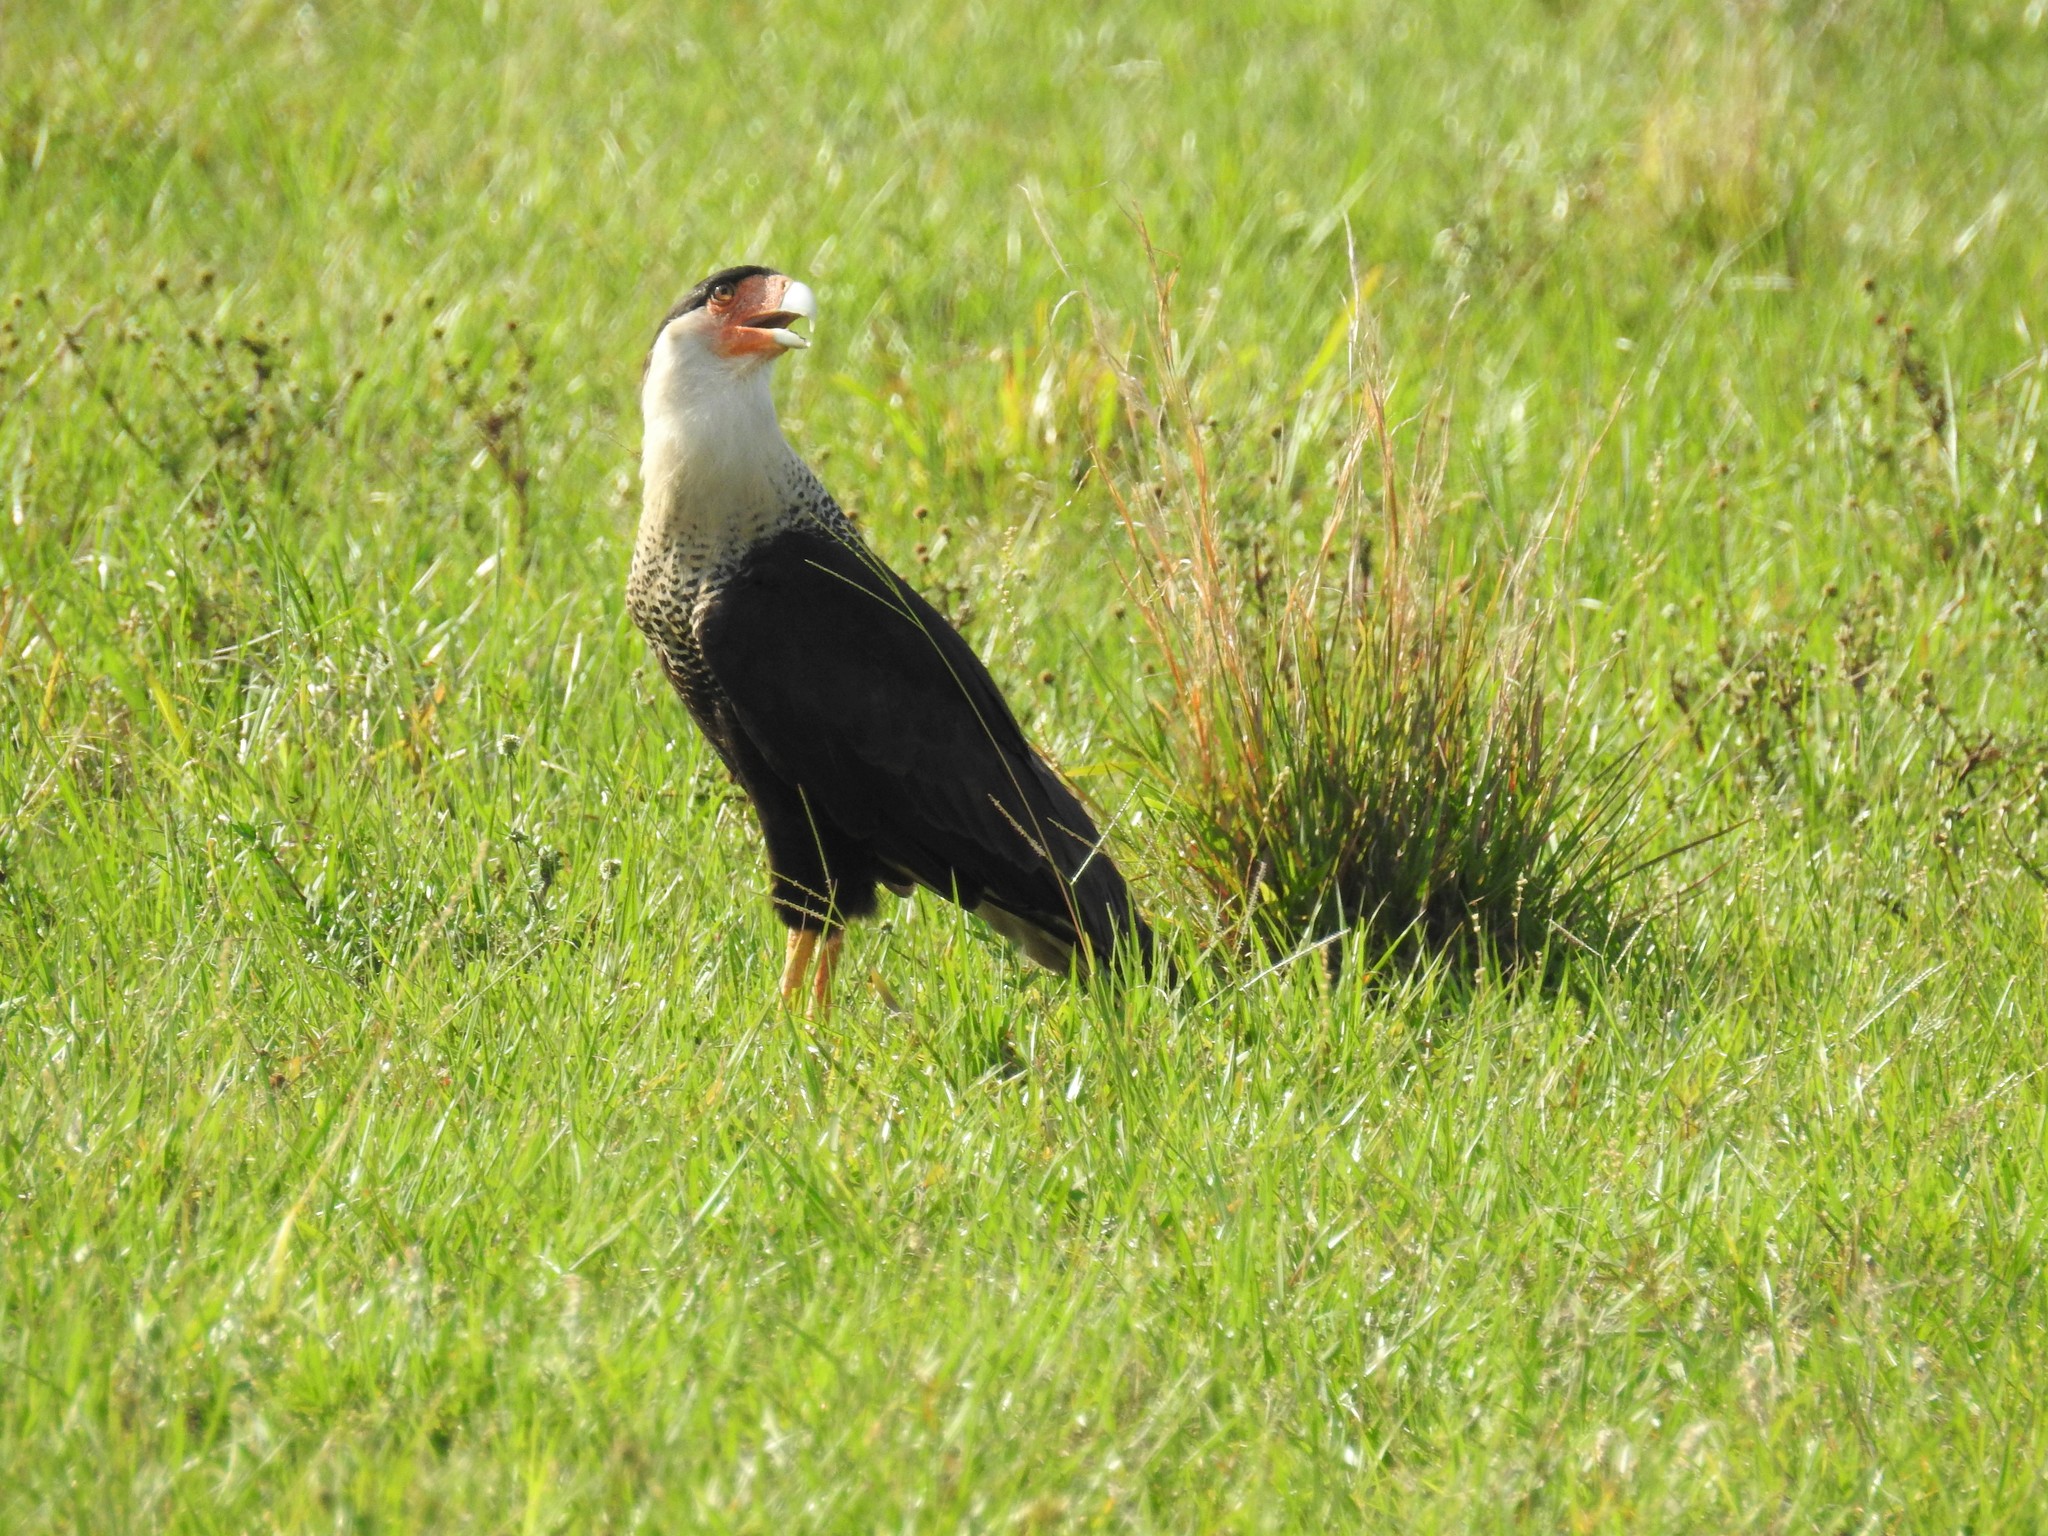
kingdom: Animalia
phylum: Chordata
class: Aves
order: Falconiformes
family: Falconidae
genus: Caracara
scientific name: Caracara plancus
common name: Southern caracara
